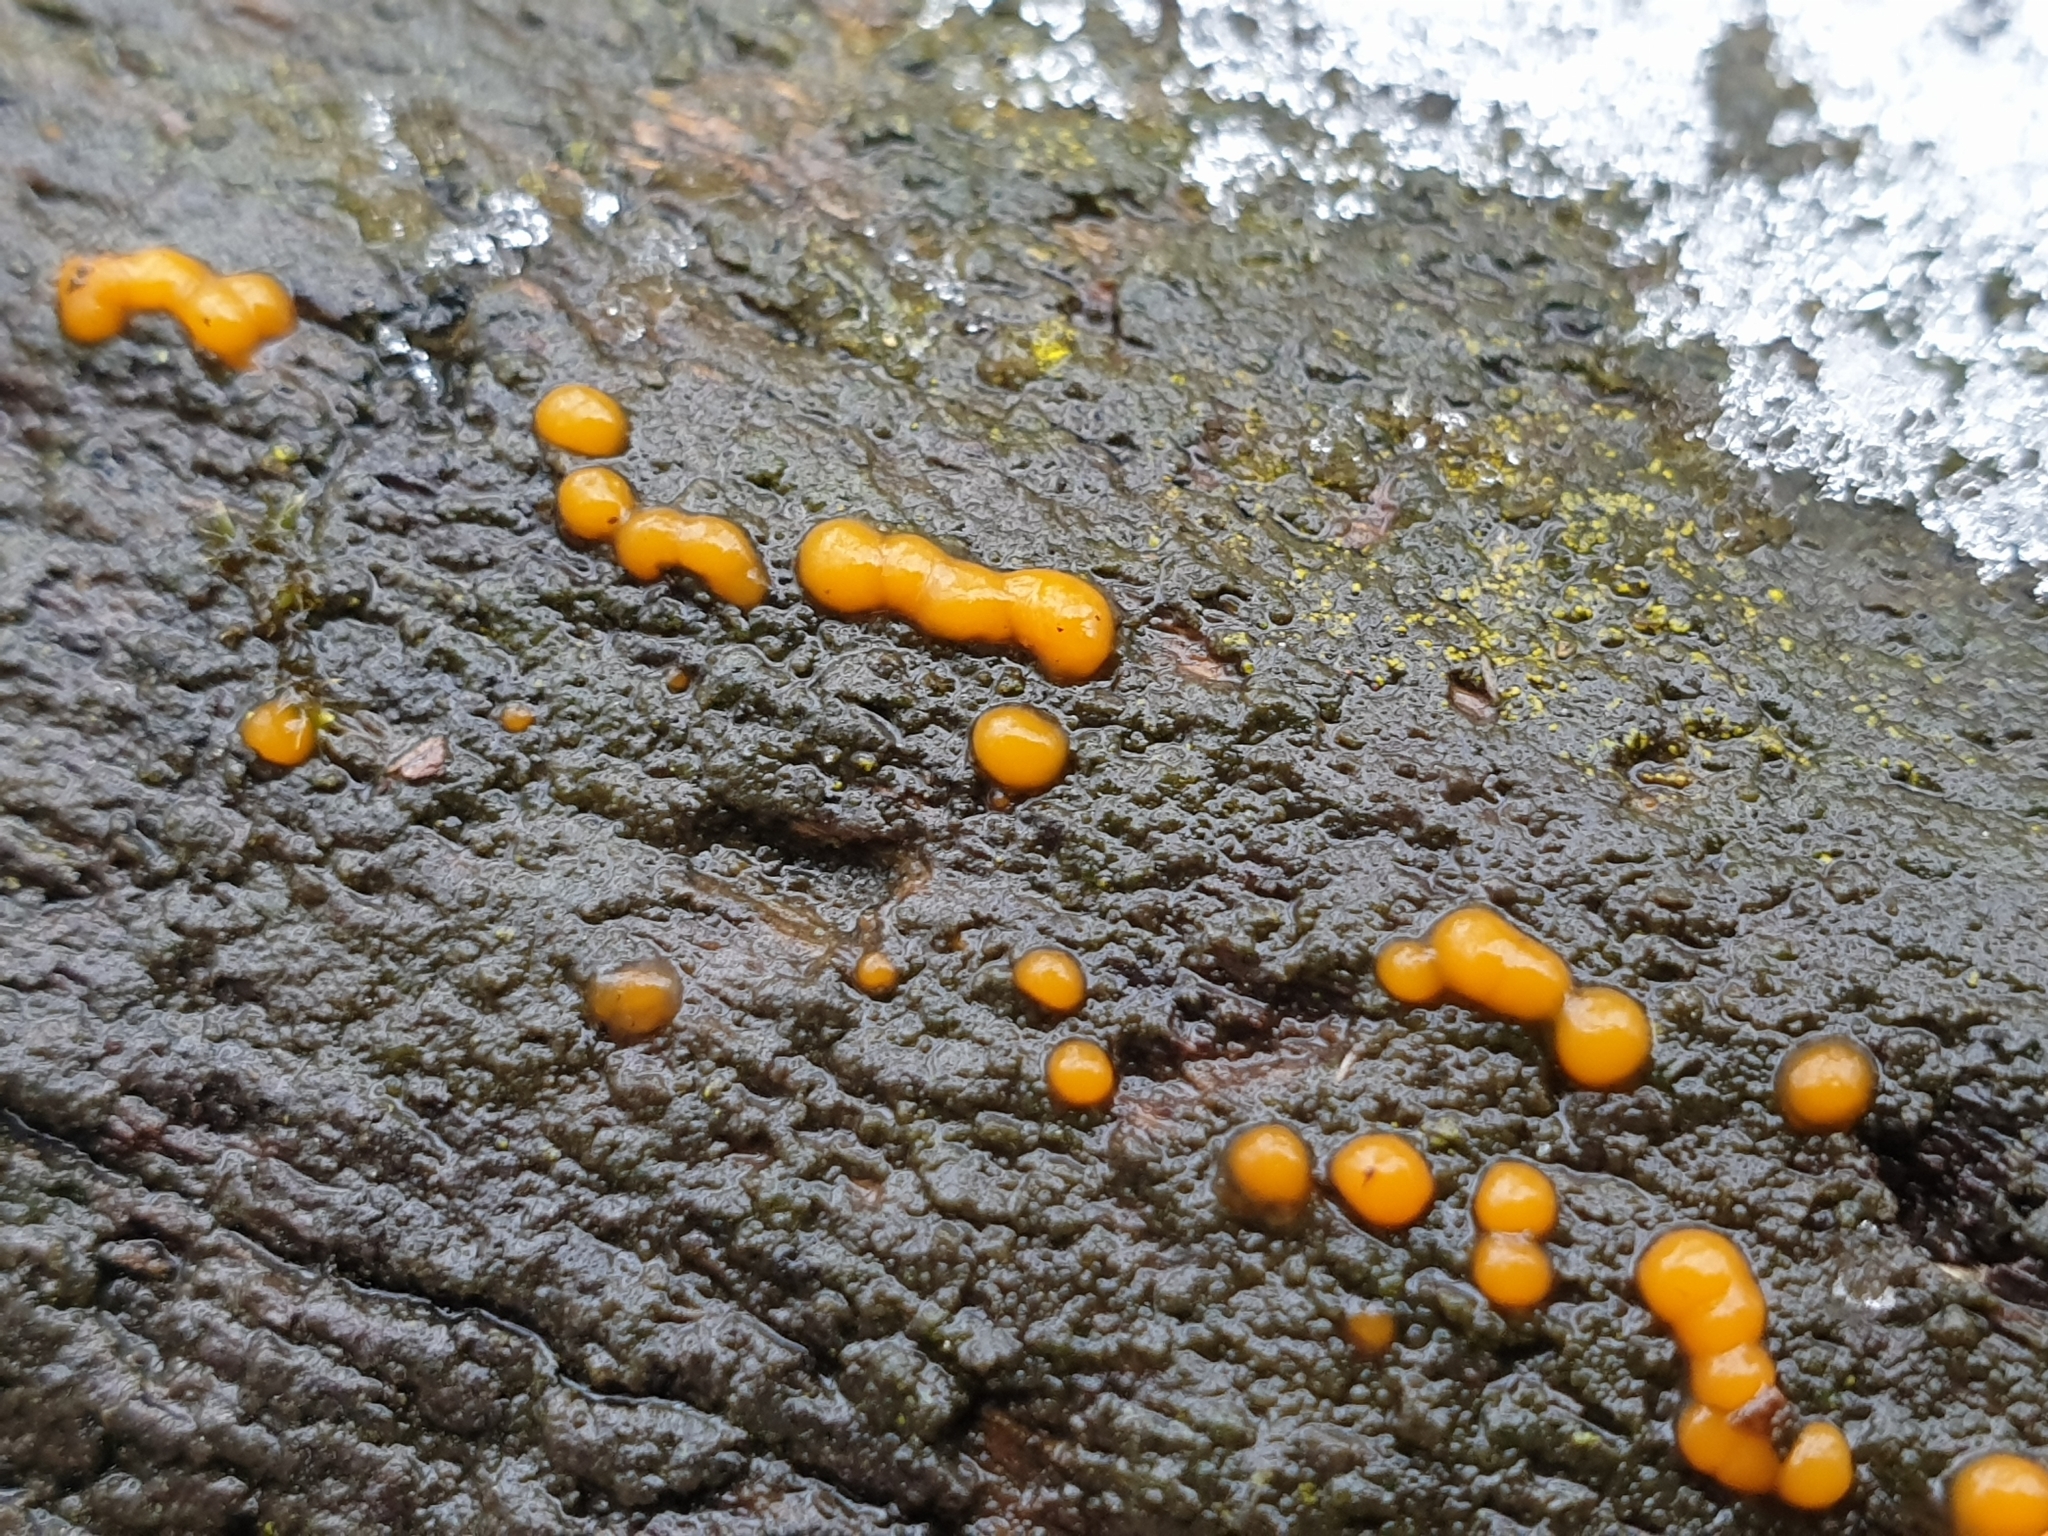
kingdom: Fungi
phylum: Basidiomycota
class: Dacrymycetes
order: Dacrymycetales
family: Dacrymycetaceae
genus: Dacrymyces
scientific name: Dacrymyces stillatus
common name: Common jelly spot
